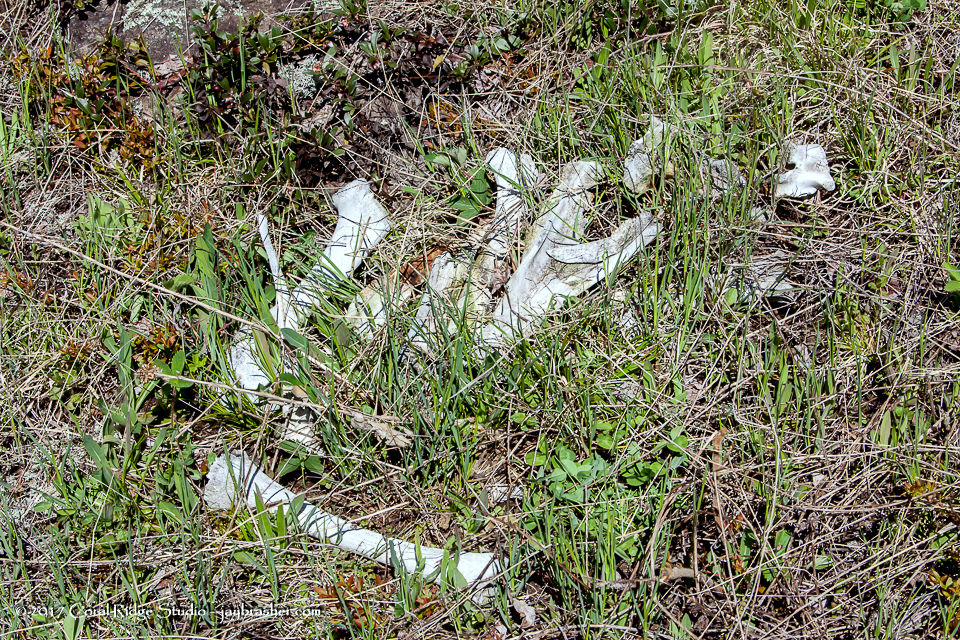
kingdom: Animalia
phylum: Chordata
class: Mammalia
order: Artiodactyla
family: Cervidae
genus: Alces
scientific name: Alces alces
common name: Moose
